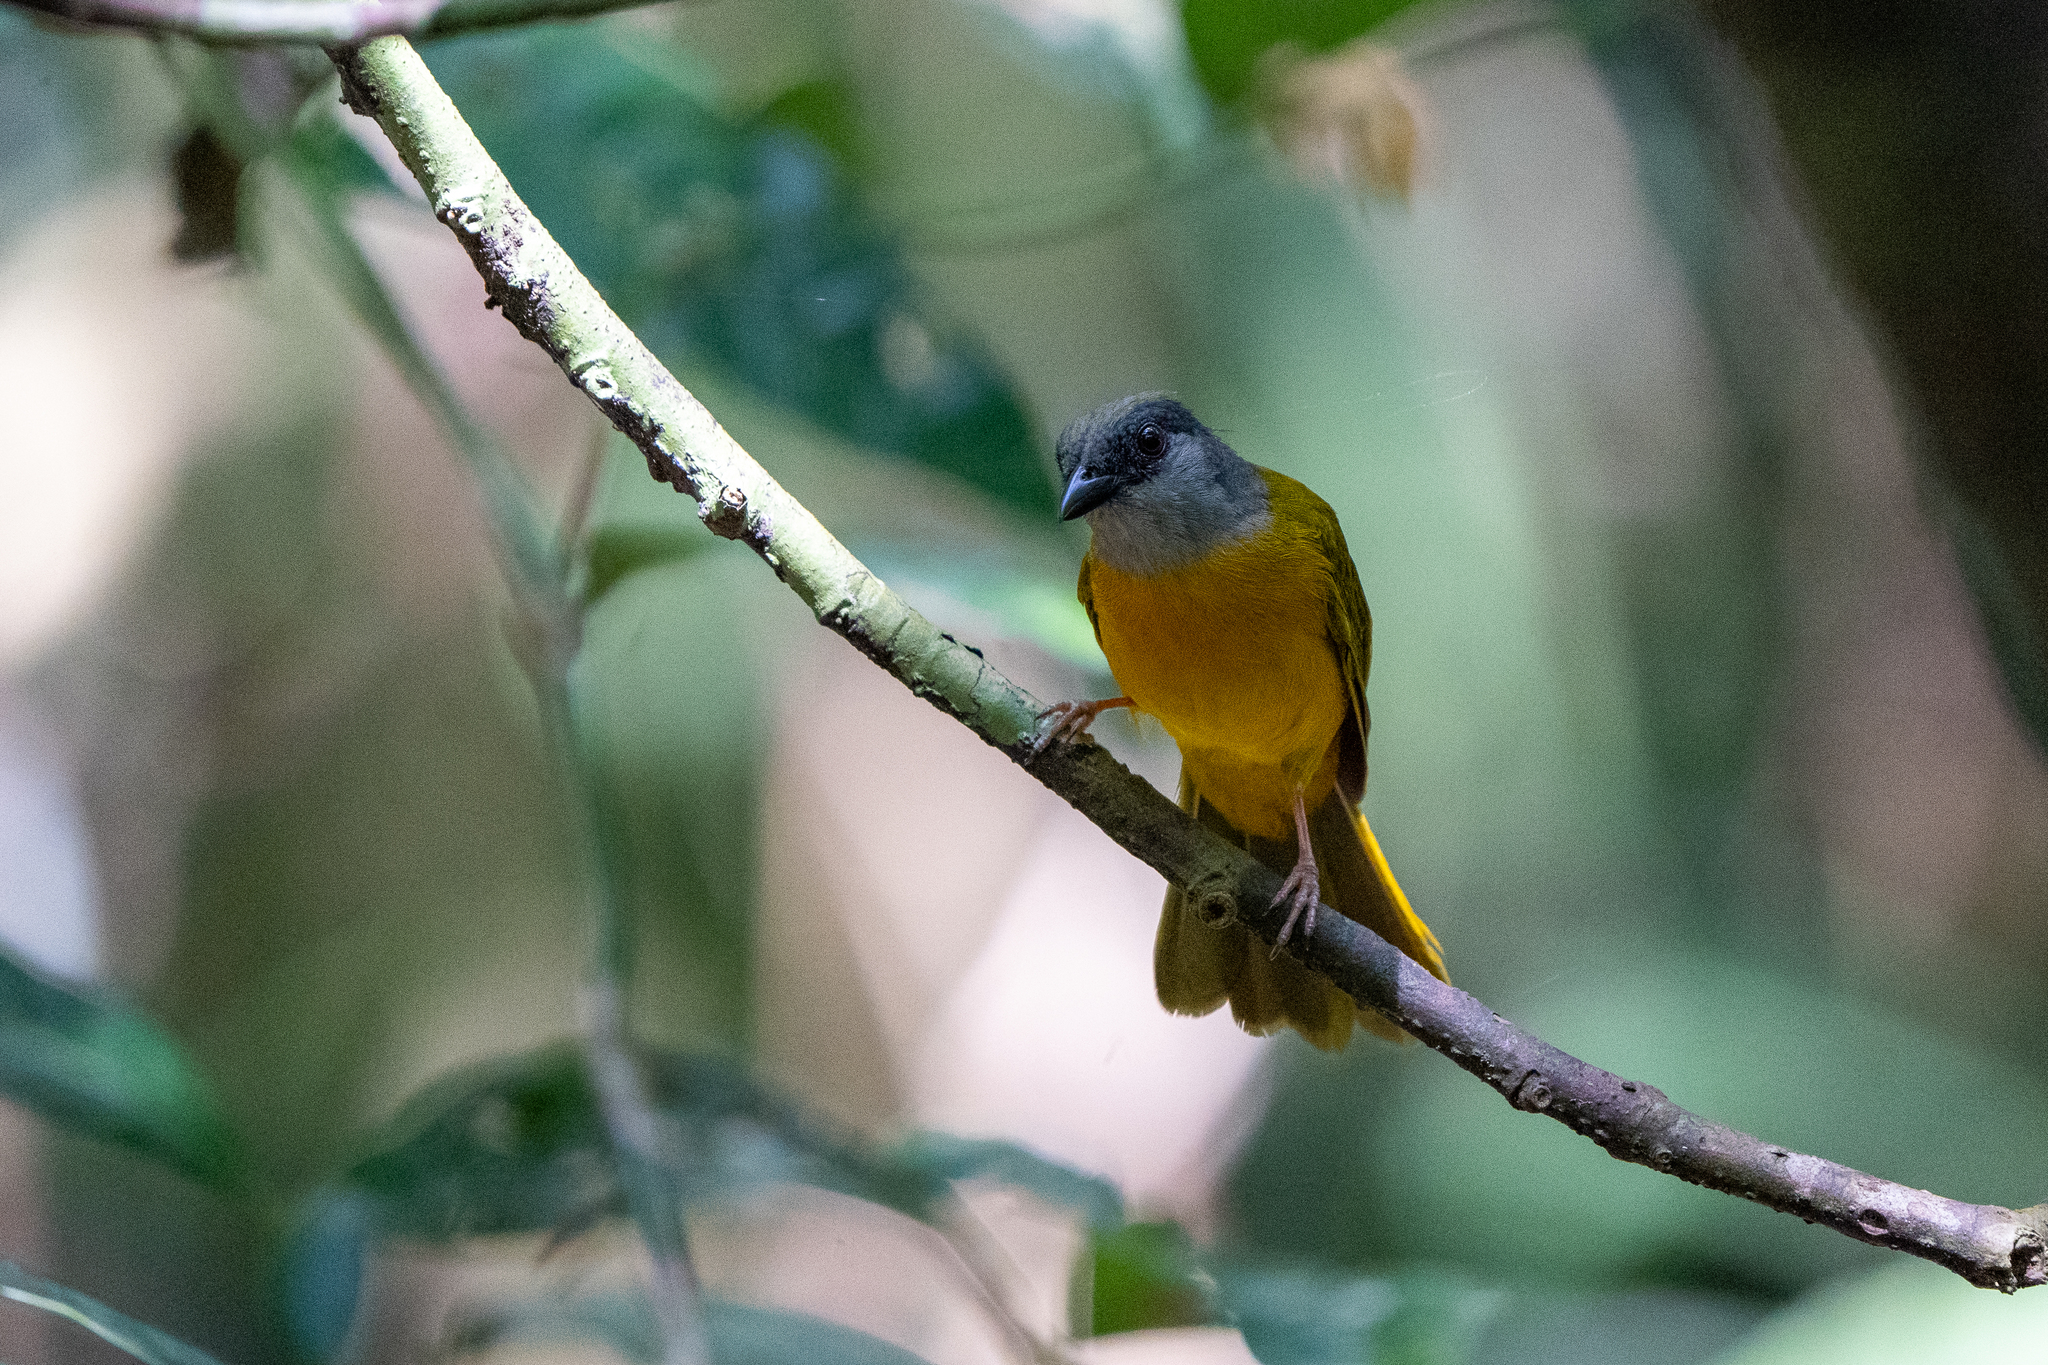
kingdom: Animalia
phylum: Chordata
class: Aves
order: Passeriformes
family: Thraupidae
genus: Eucometis
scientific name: Eucometis penicillata
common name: Grey-headed tanager
